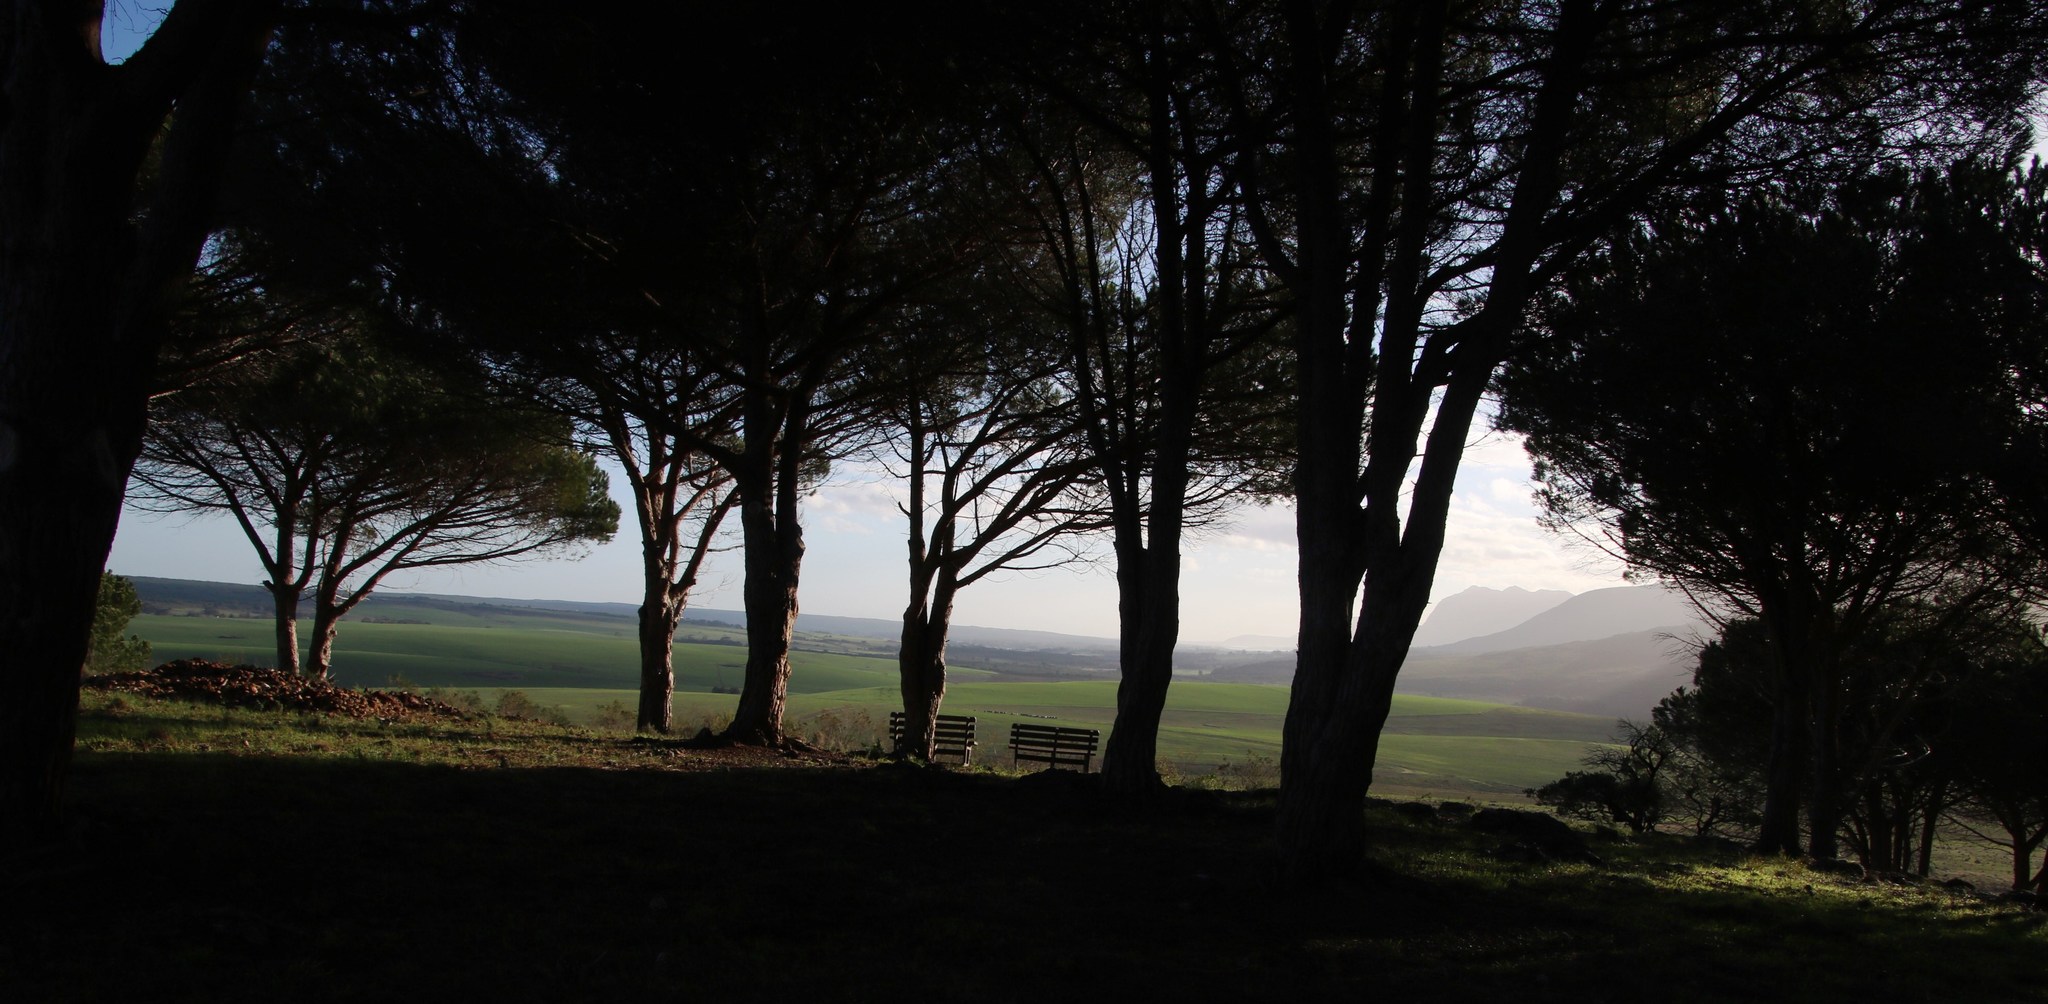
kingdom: Plantae
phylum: Tracheophyta
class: Pinopsida
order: Pinales
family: Pinaceae
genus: Pinus
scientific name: Pinus pinea
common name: Italian stone pine
